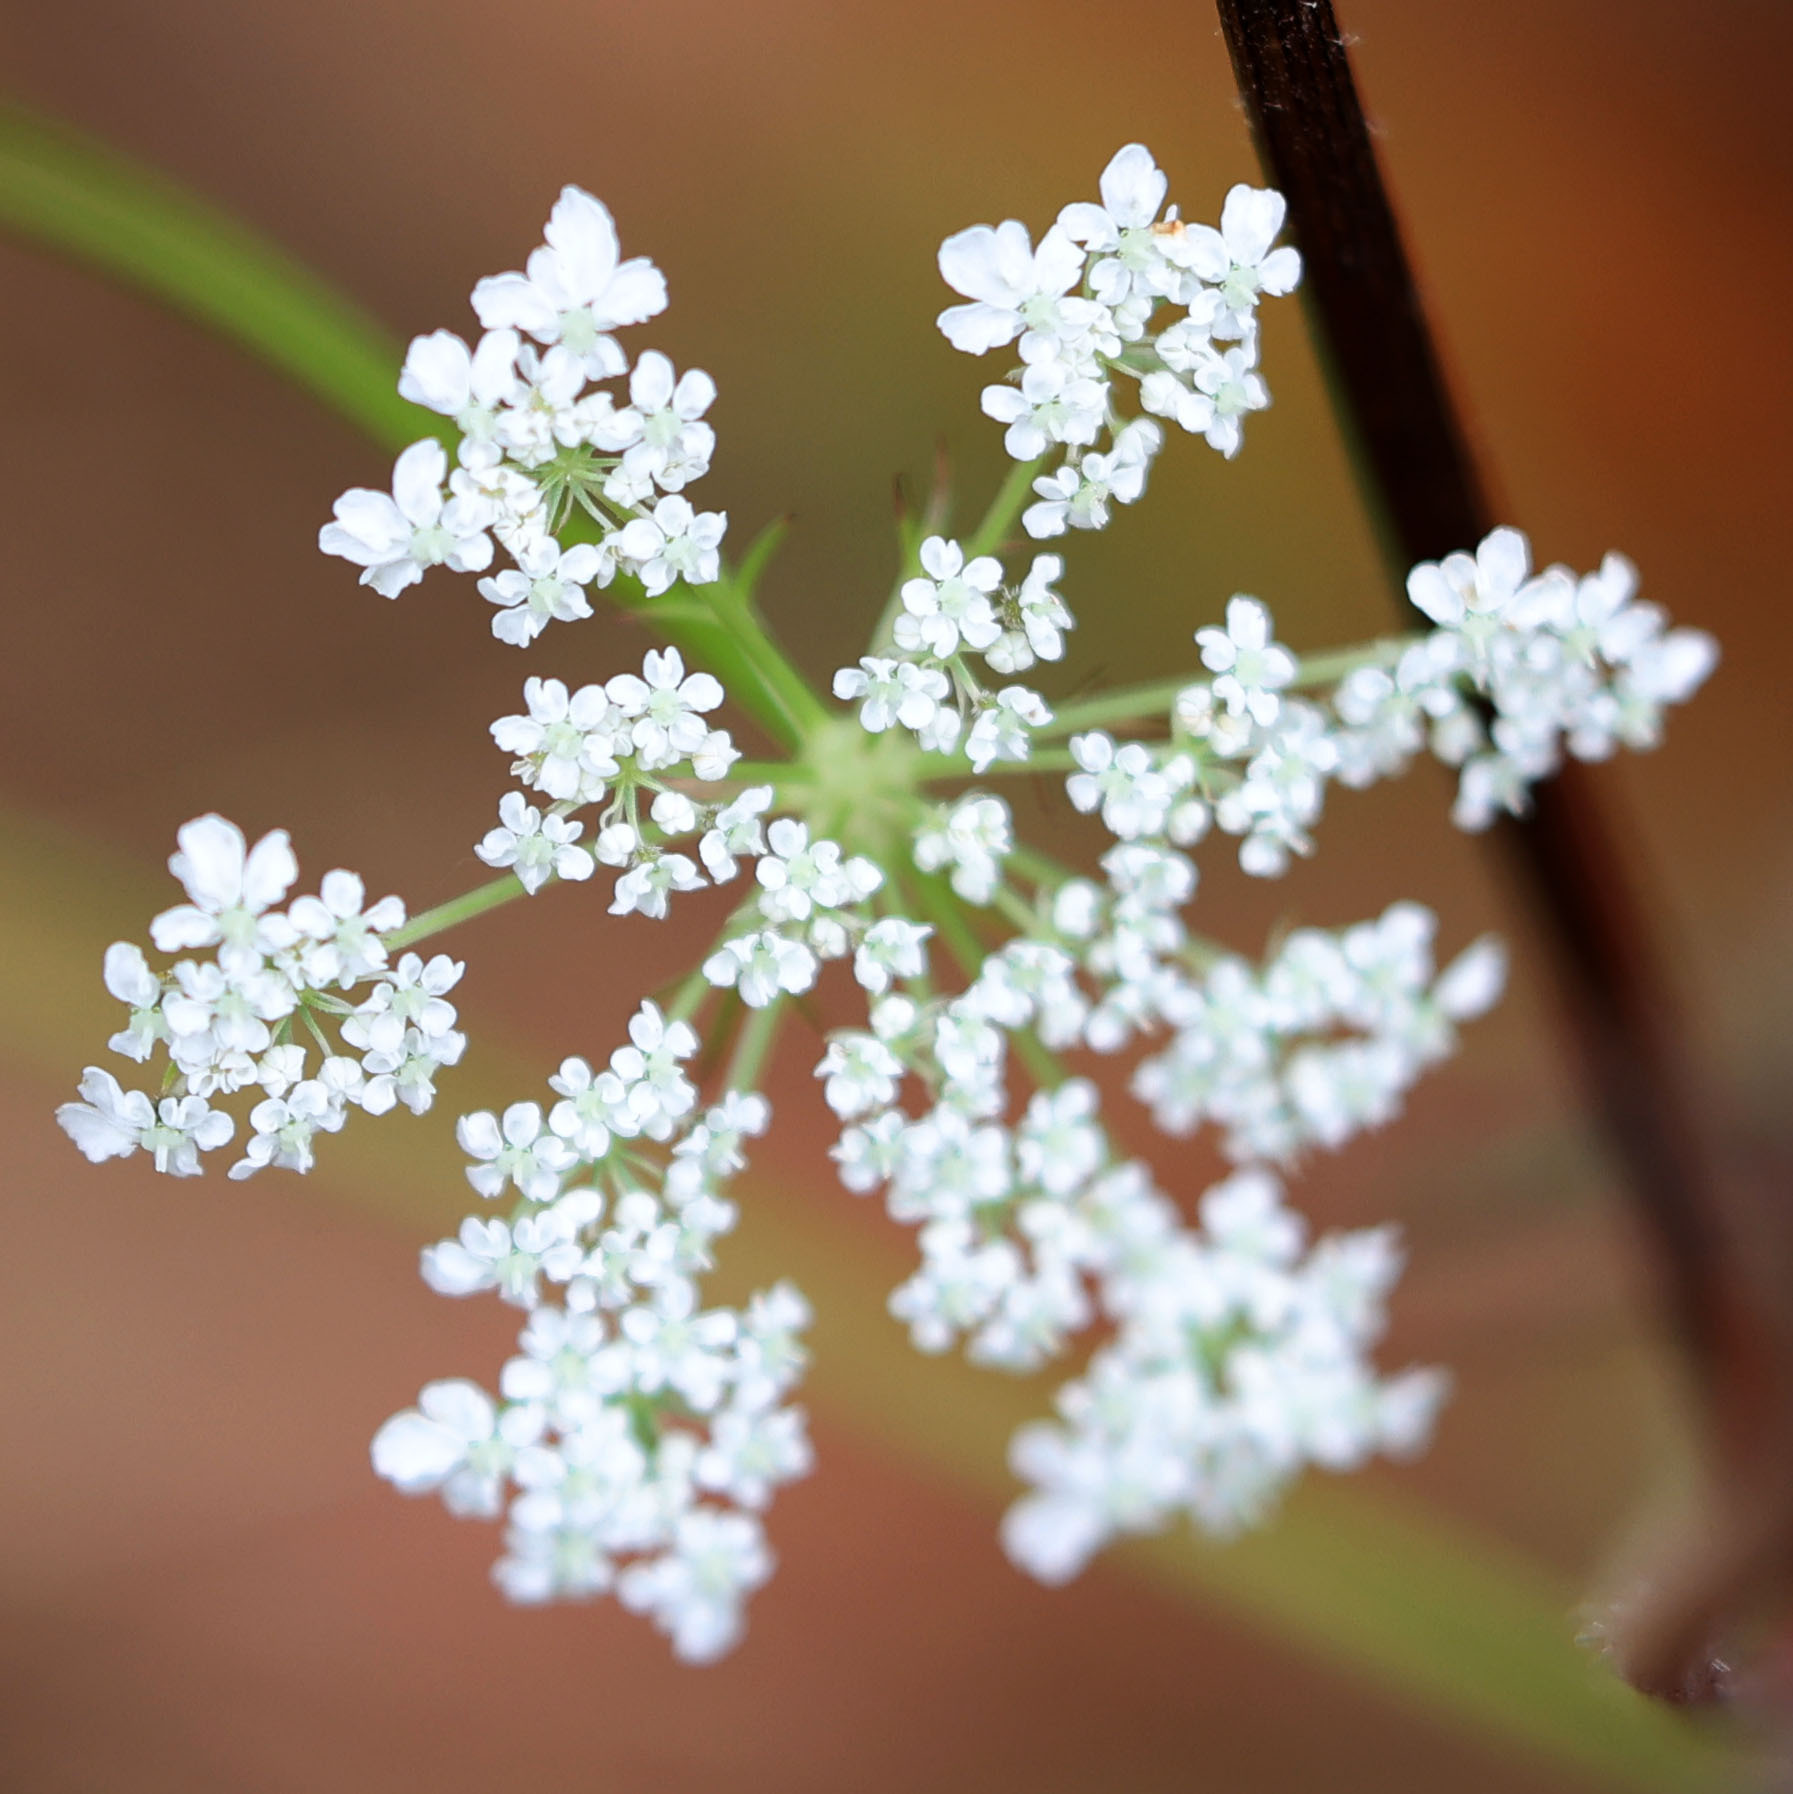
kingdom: Plantae
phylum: Tracheophyta
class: Magnoliopsida
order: Apiales
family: Apiaceae
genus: Daucus
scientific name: Daucus carota
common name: Wild carrot
